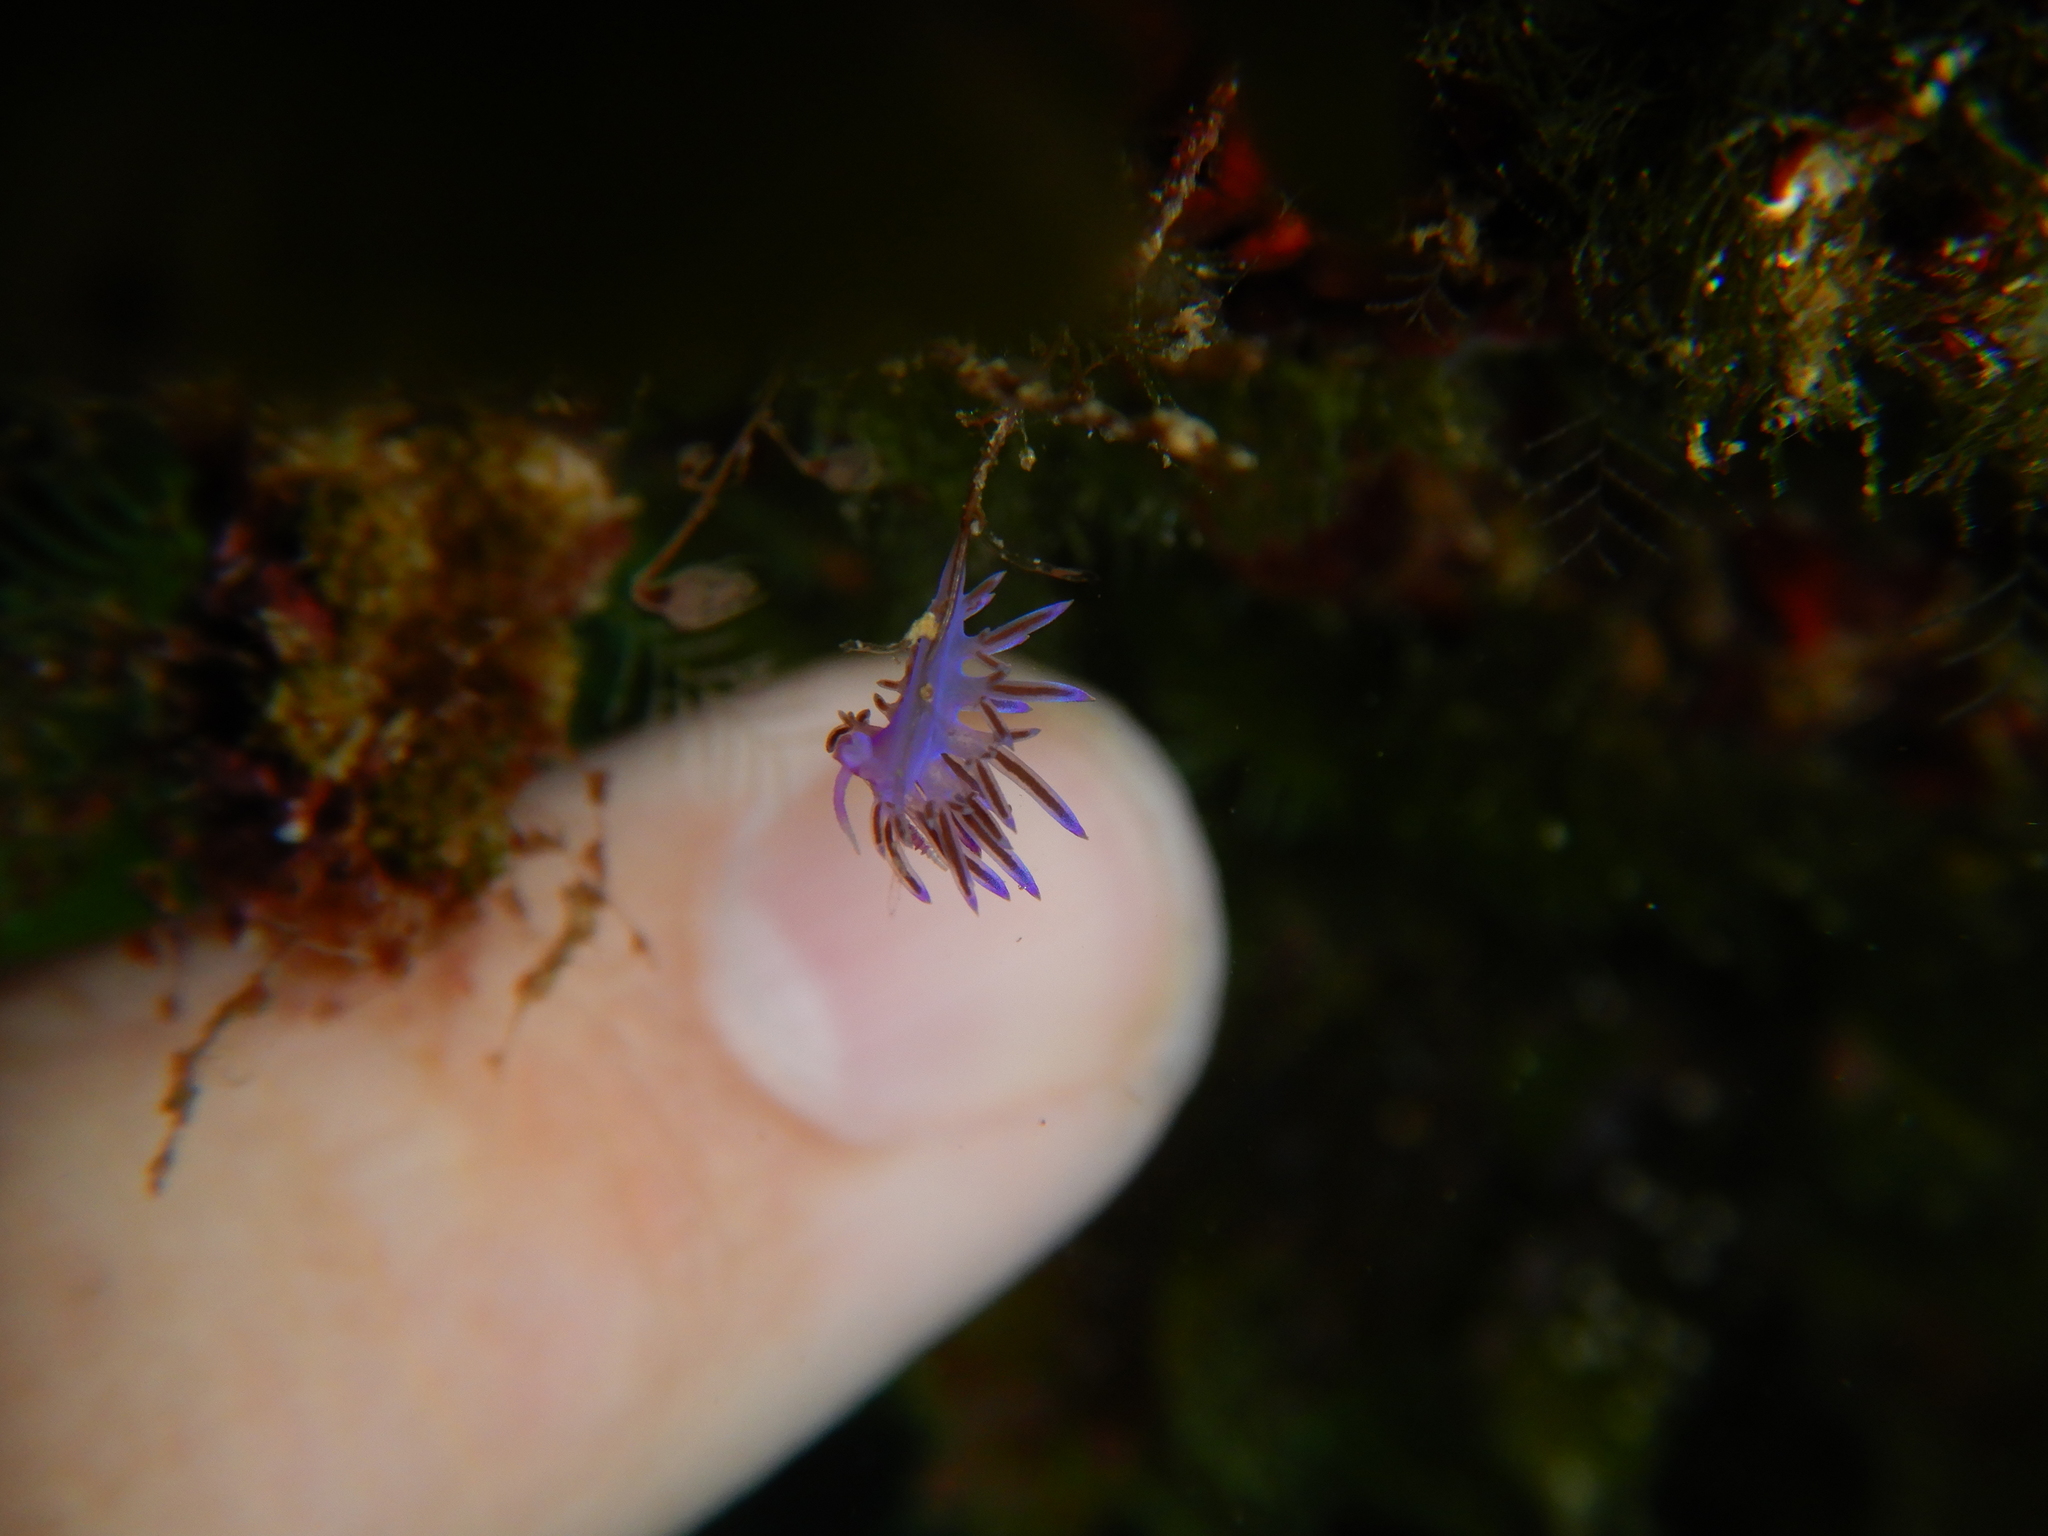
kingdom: Animalia
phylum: Mollusca
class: Gastropoda
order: Nudibranchia
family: Flabellinidae
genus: Flabellina
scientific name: Flabellina affinis
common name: Mediterranean violet aeolid
